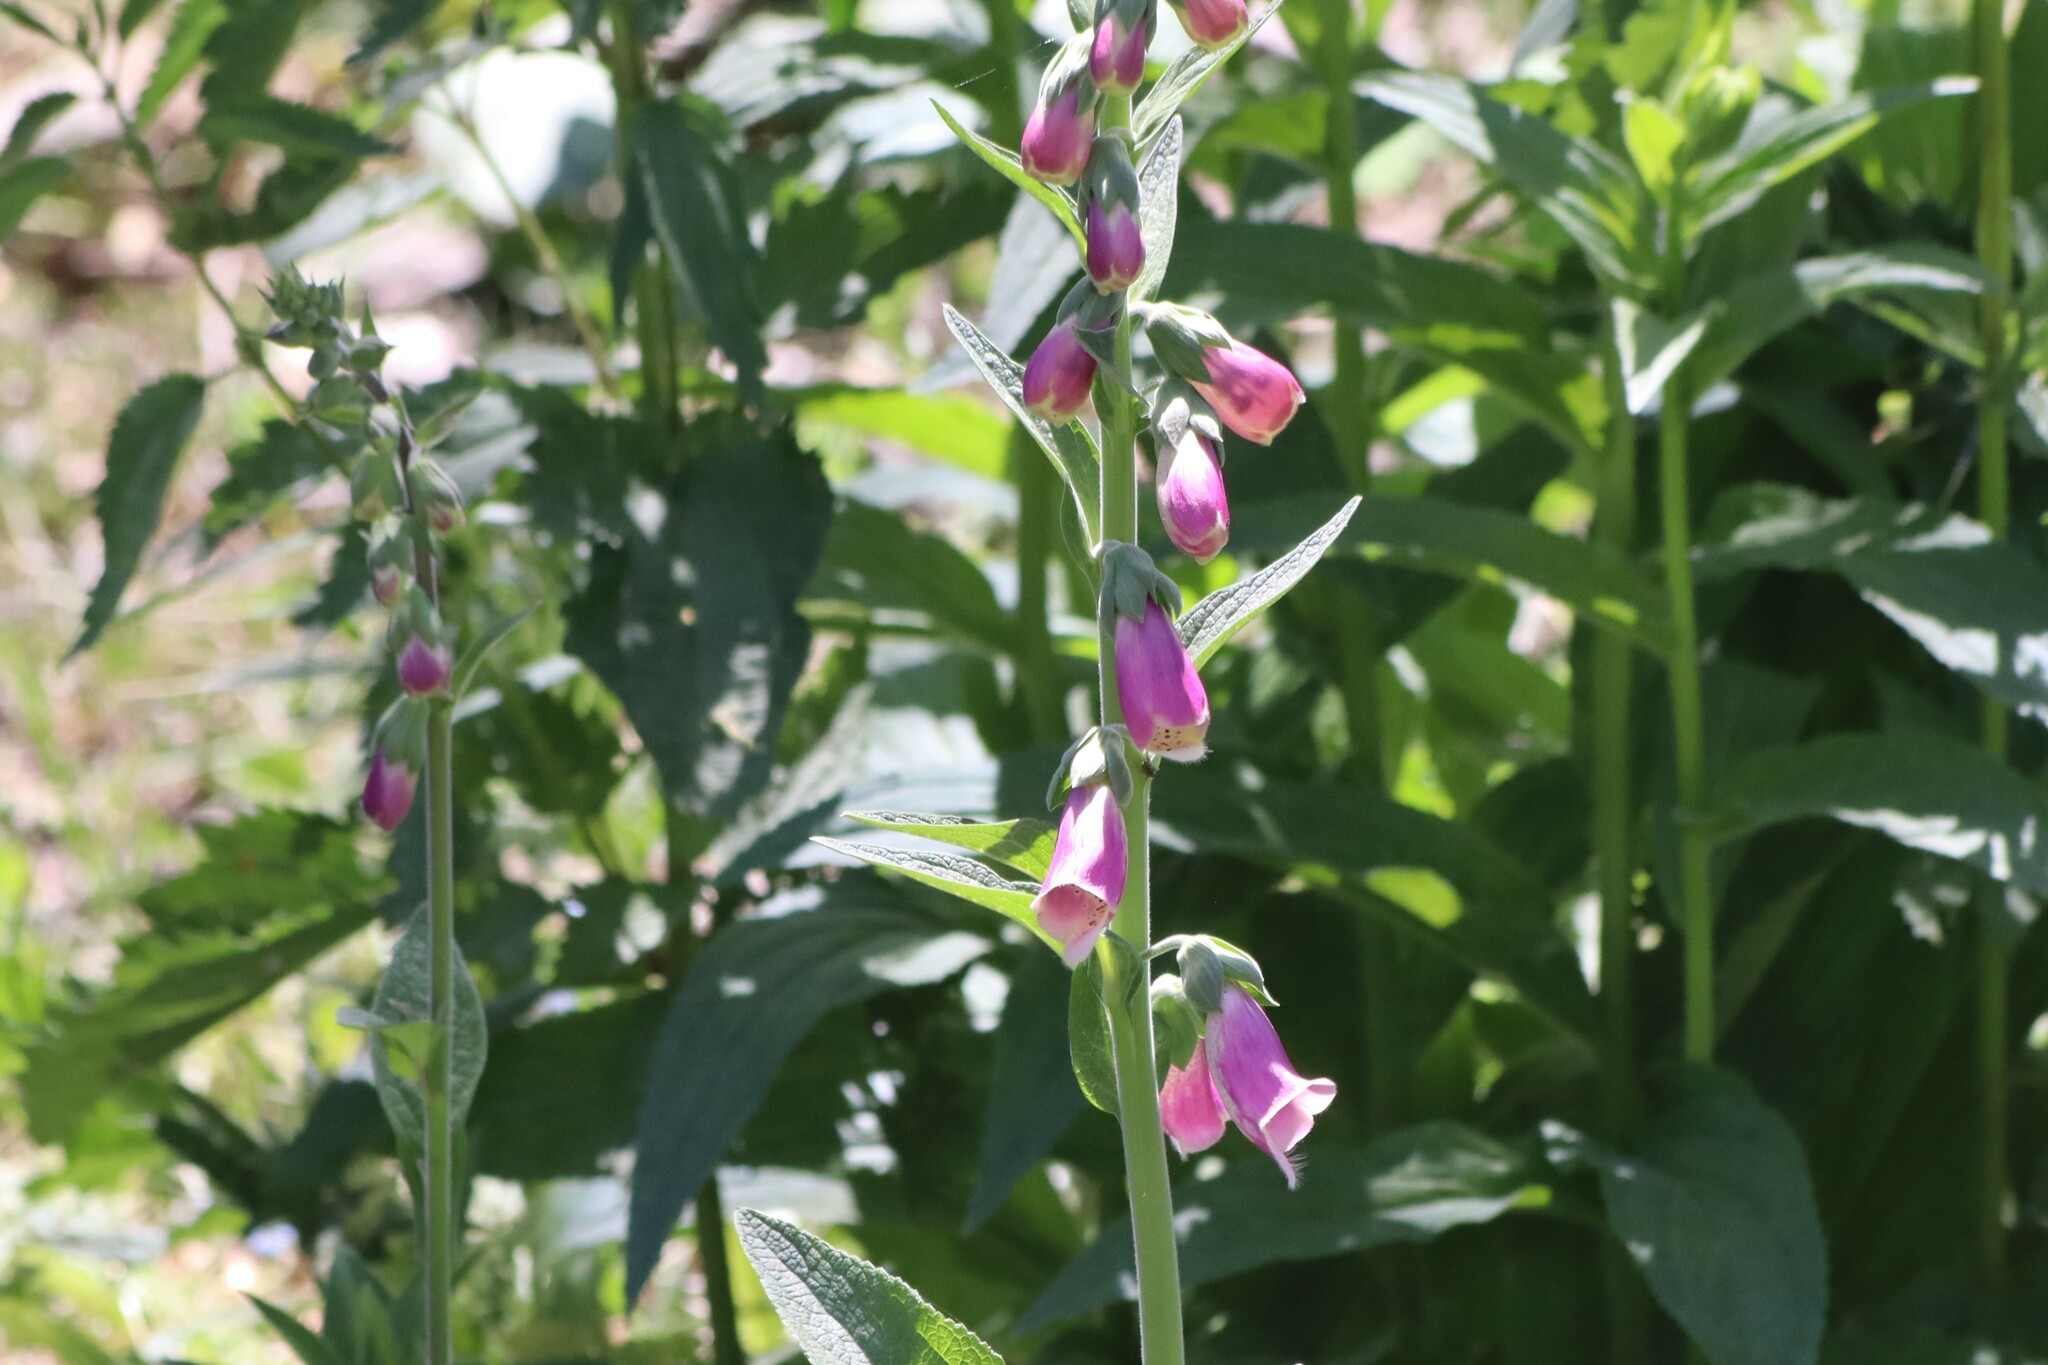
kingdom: Plantae
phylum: Tracheophyta
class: Magnoliopsida
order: Lamiales
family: Plantaginaceae
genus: Digitalis
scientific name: Digitalis purpurea
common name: Foxglove
